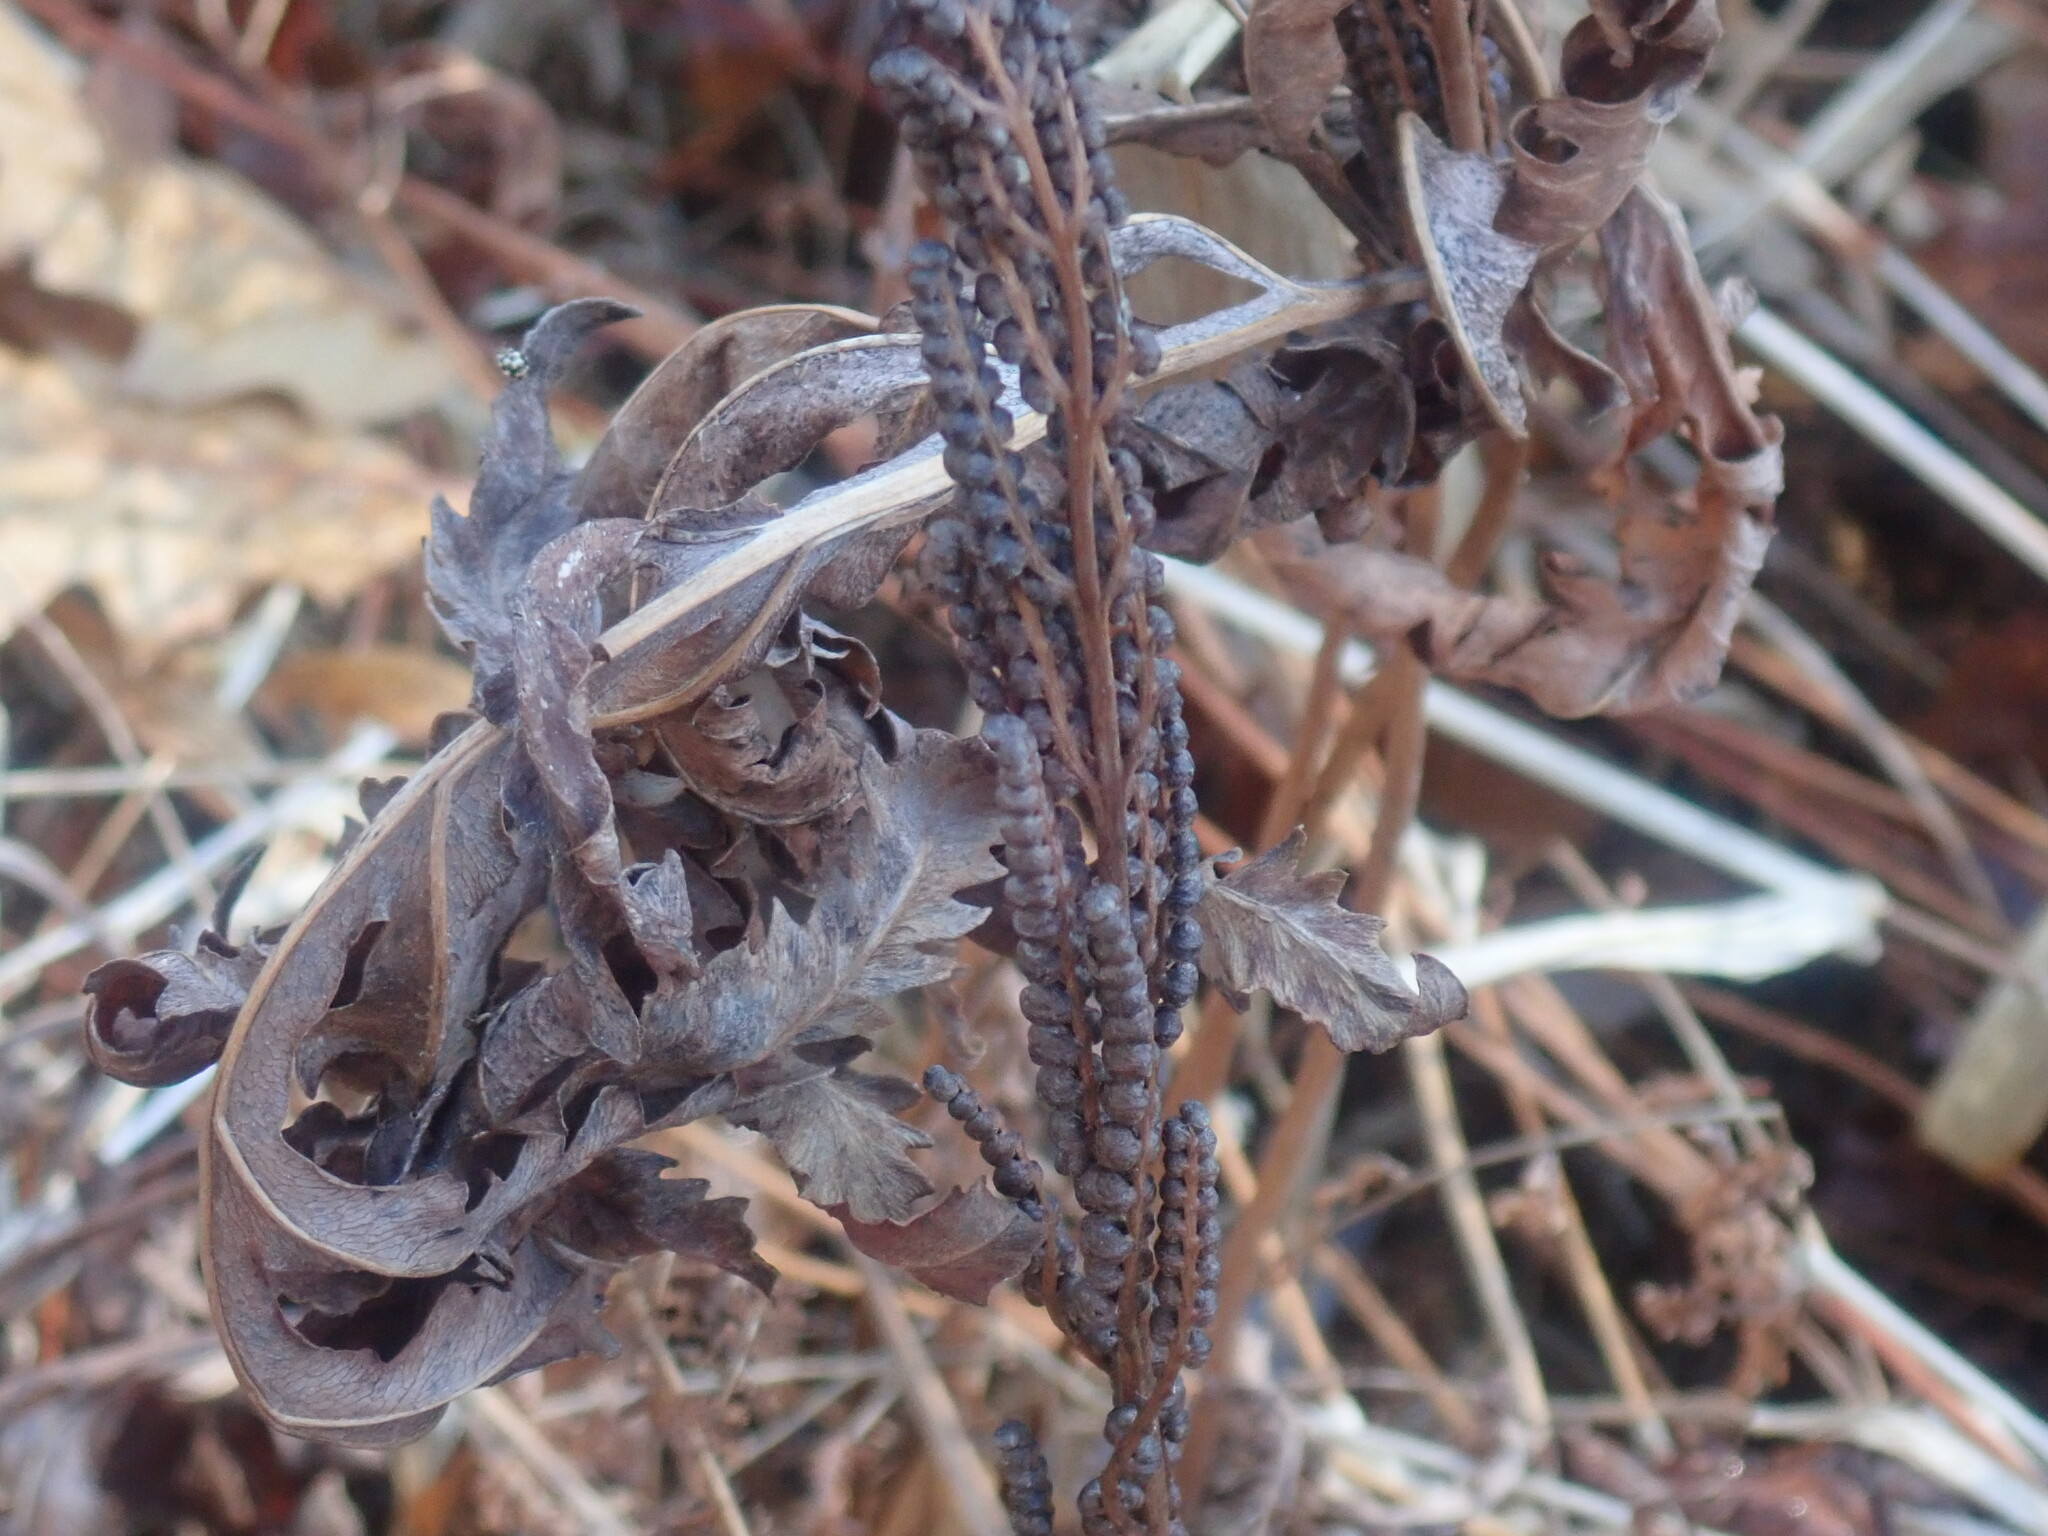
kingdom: Plantae
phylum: Tracheophyta
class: Polypodiopsida
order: Polypodiales
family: Onocleaceae
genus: Onoclea
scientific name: Onoclea sensibilis
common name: Sensitive fern
